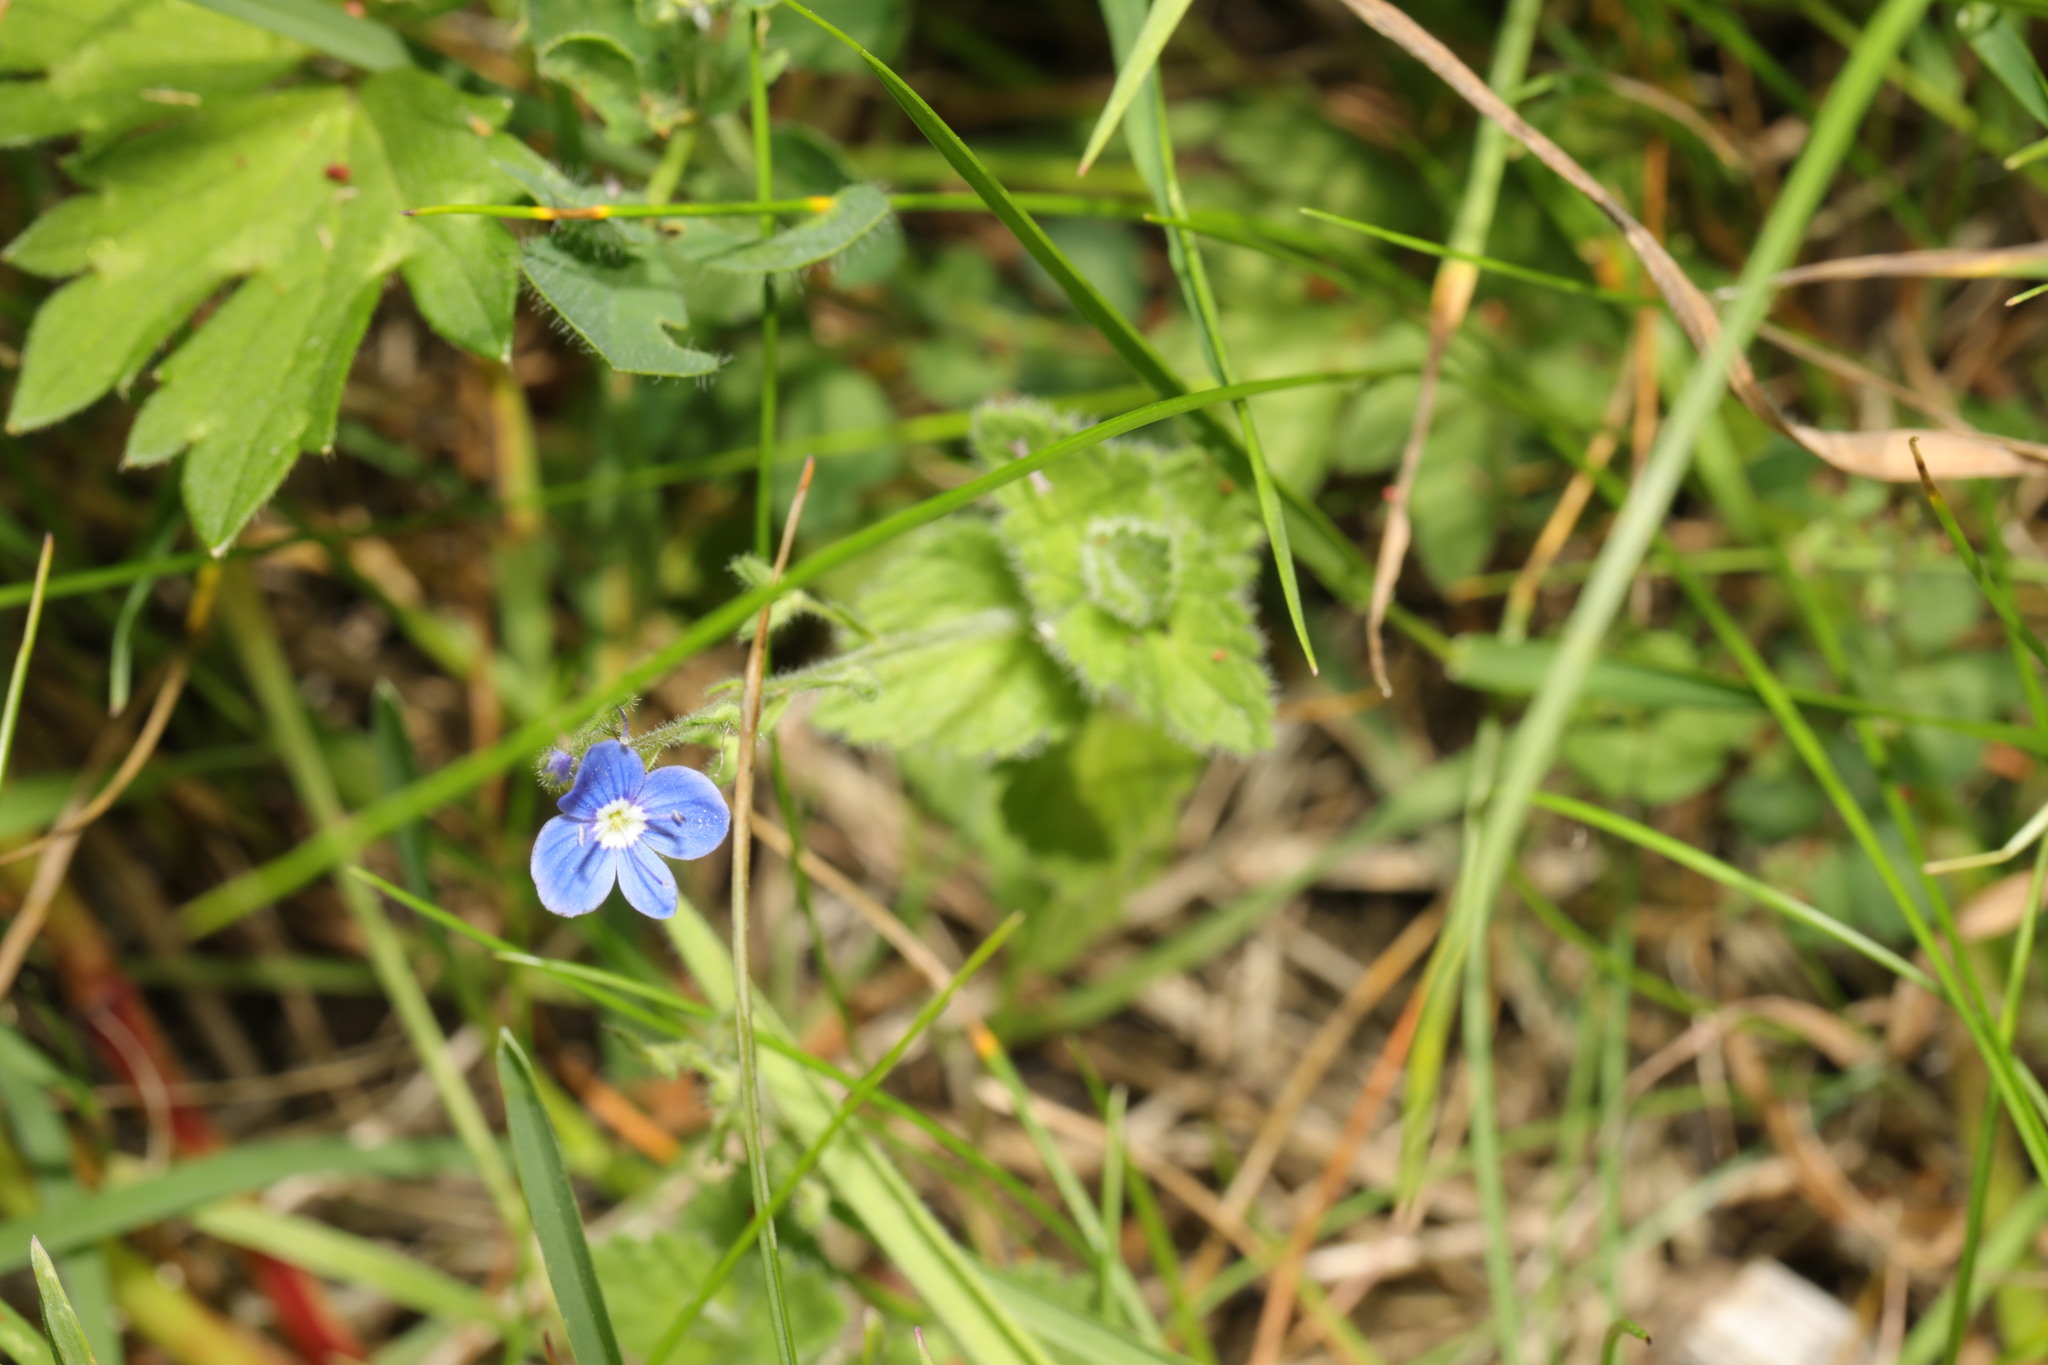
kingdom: Plantae
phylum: Tracheophyta
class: Magnoliopsida
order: Lamiales
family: Plantaginaceae
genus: Veronica
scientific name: Veronica chamaedrys
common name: Germander speedwell
